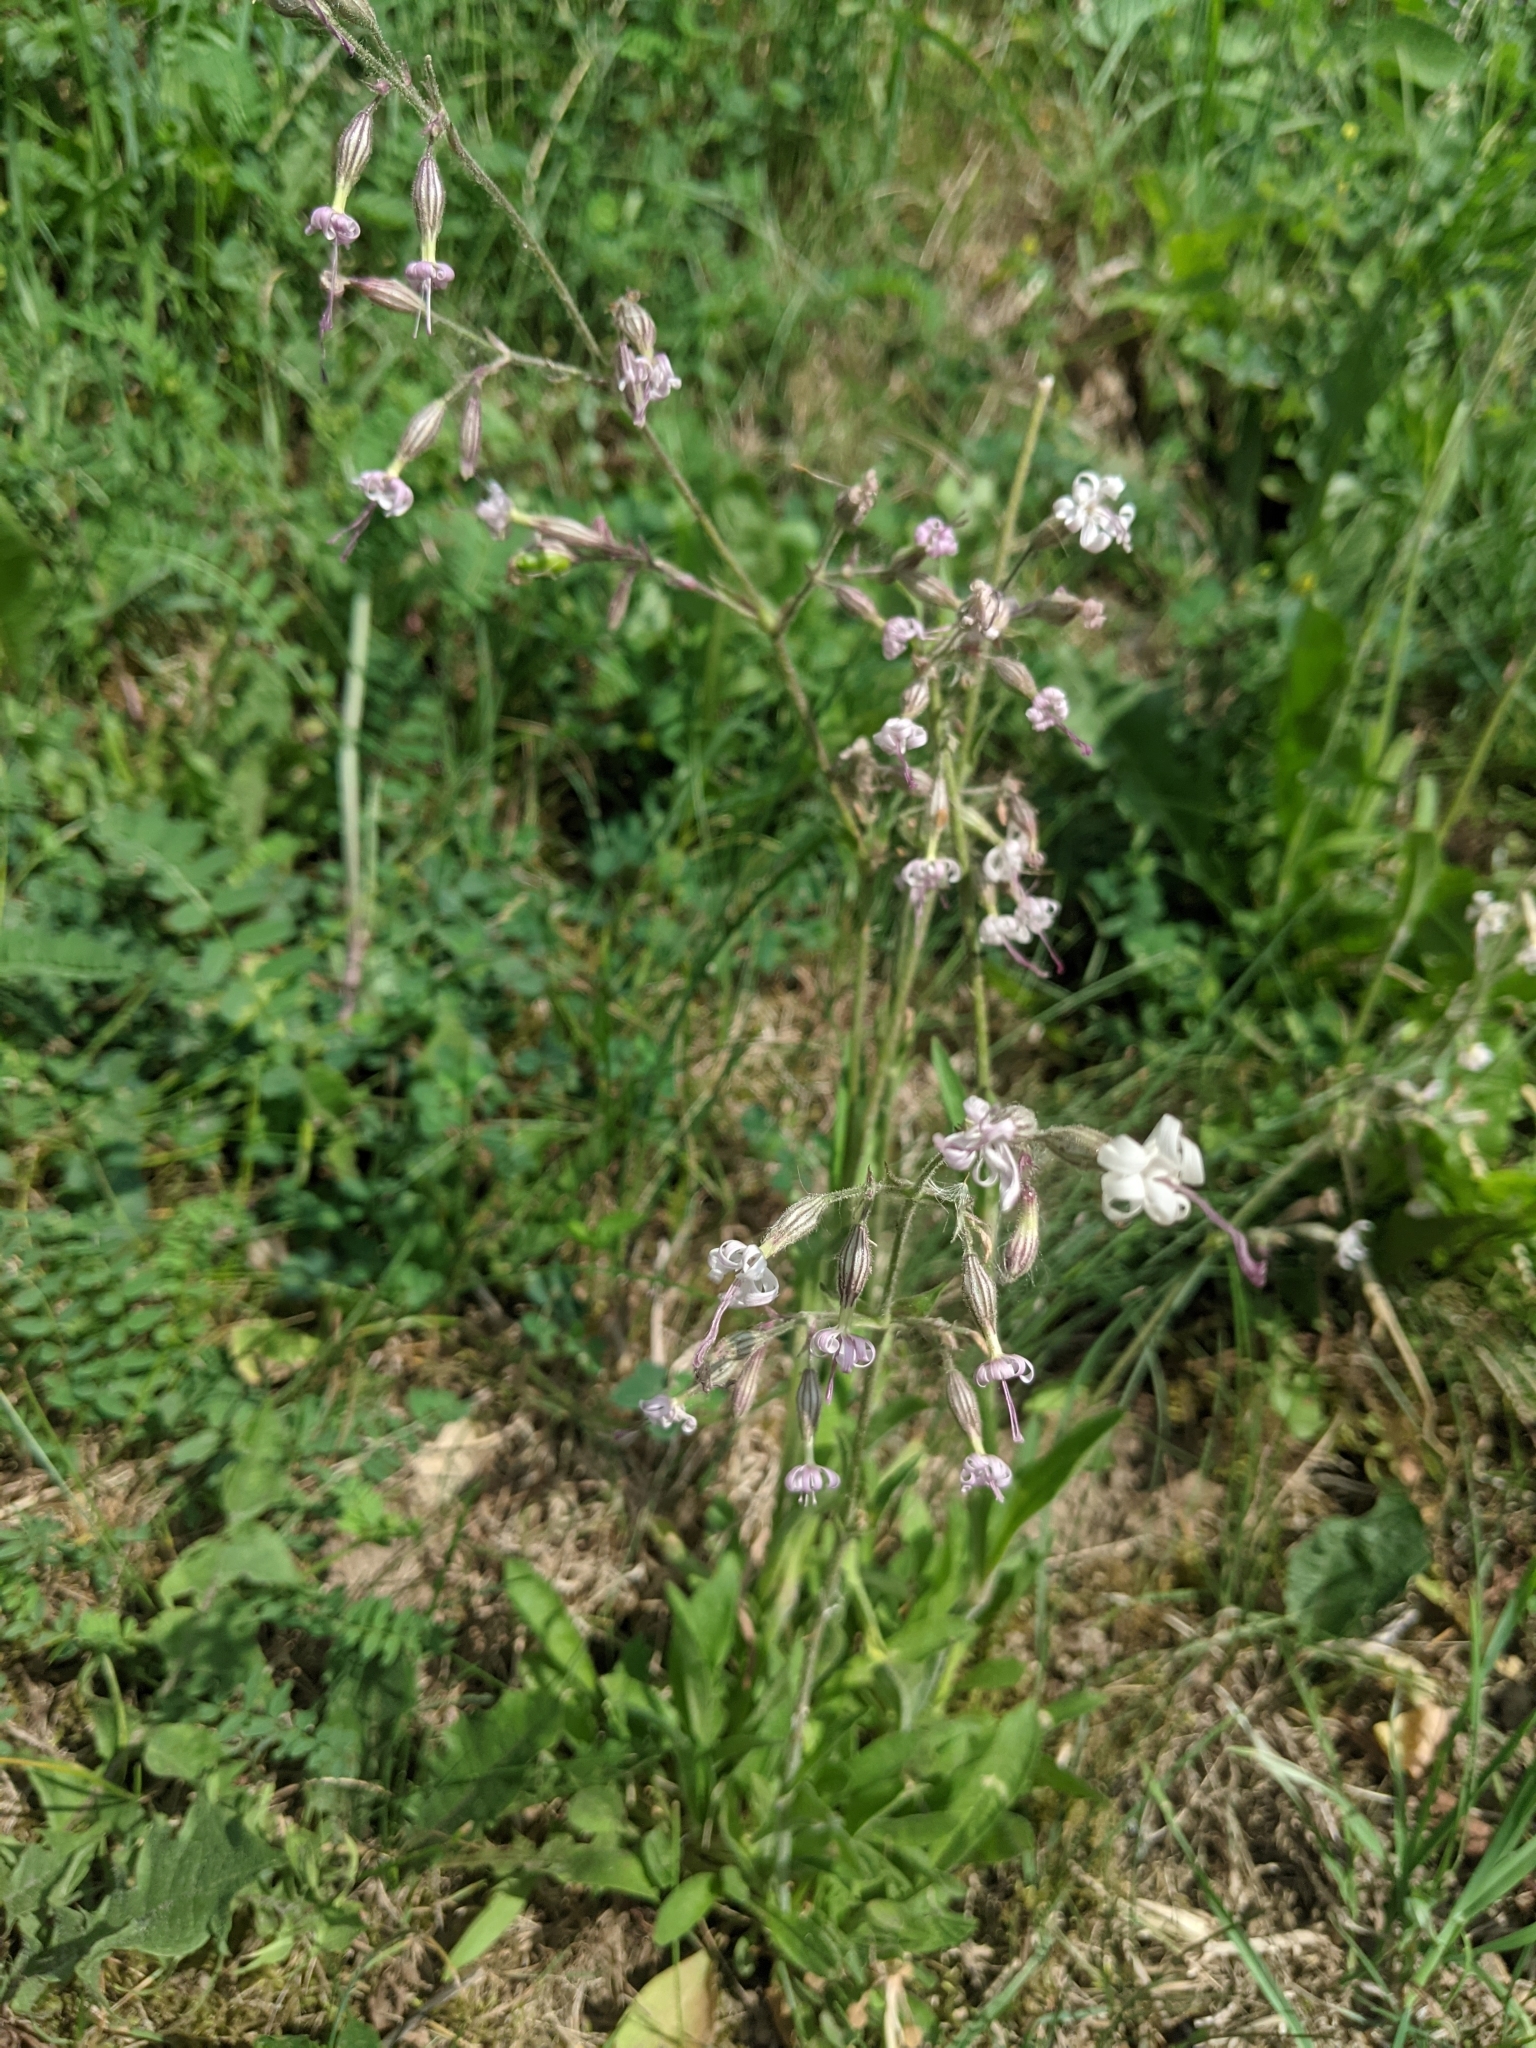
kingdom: Plantae
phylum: Tracheophyta
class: Magnoliopsida
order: Caryophyllales
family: Caryophyllaceae
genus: Silene
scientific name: Silene nutans
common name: Nottingham catchfly
